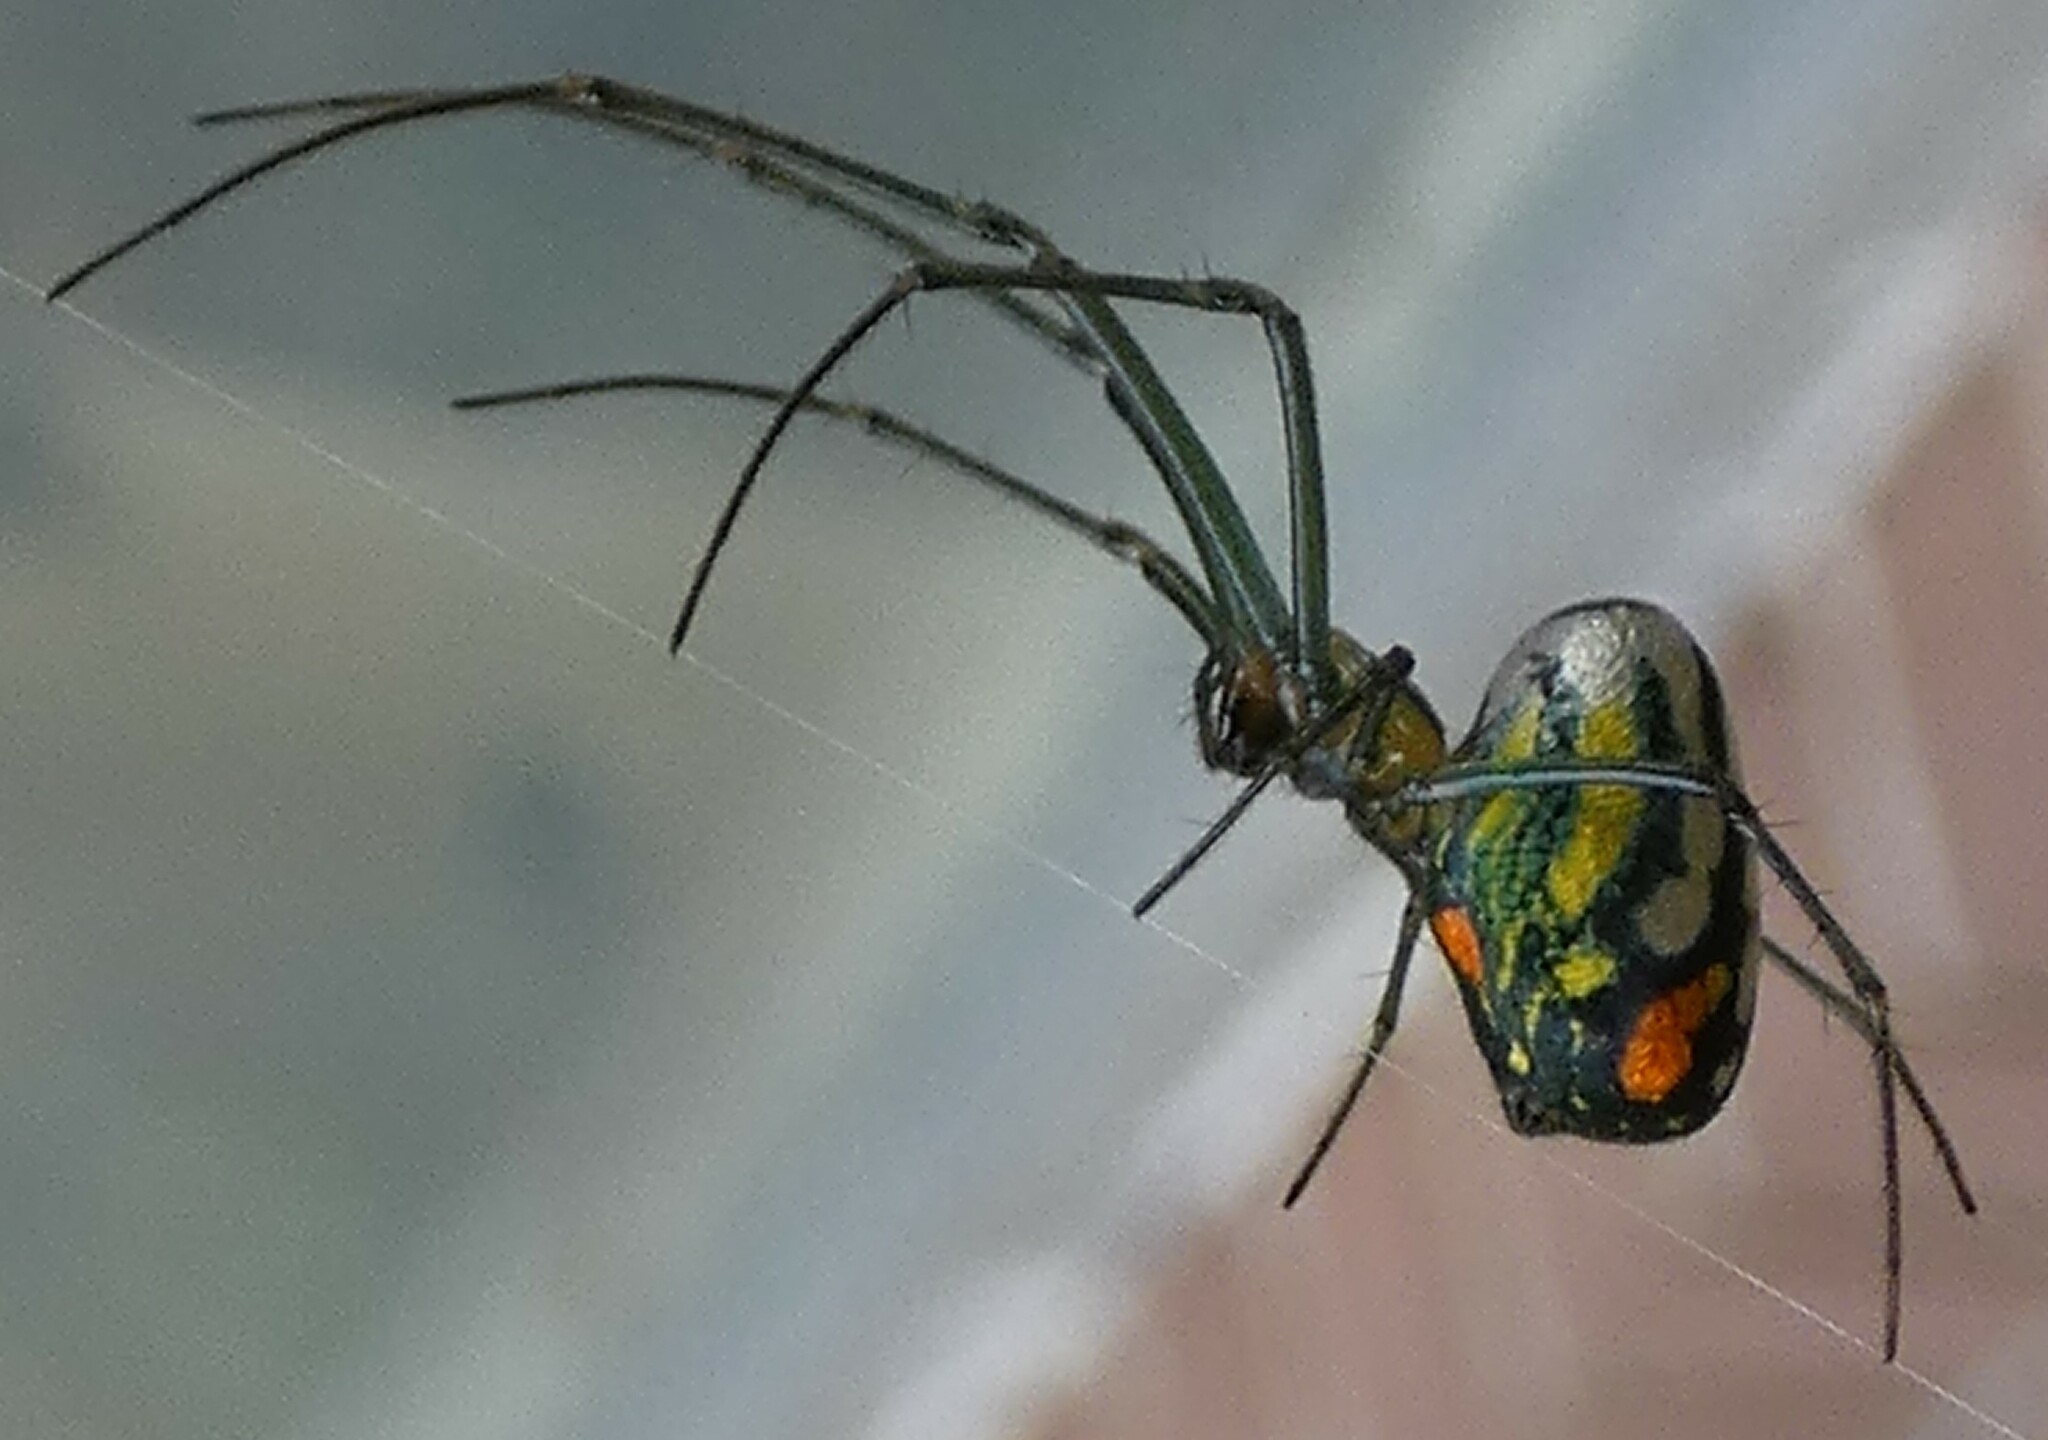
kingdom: Animalia
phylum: Arthropoda
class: Arachnida
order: Araneae
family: Tetragnathidae
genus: Leucauge
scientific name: Leucauge argyrobapta
